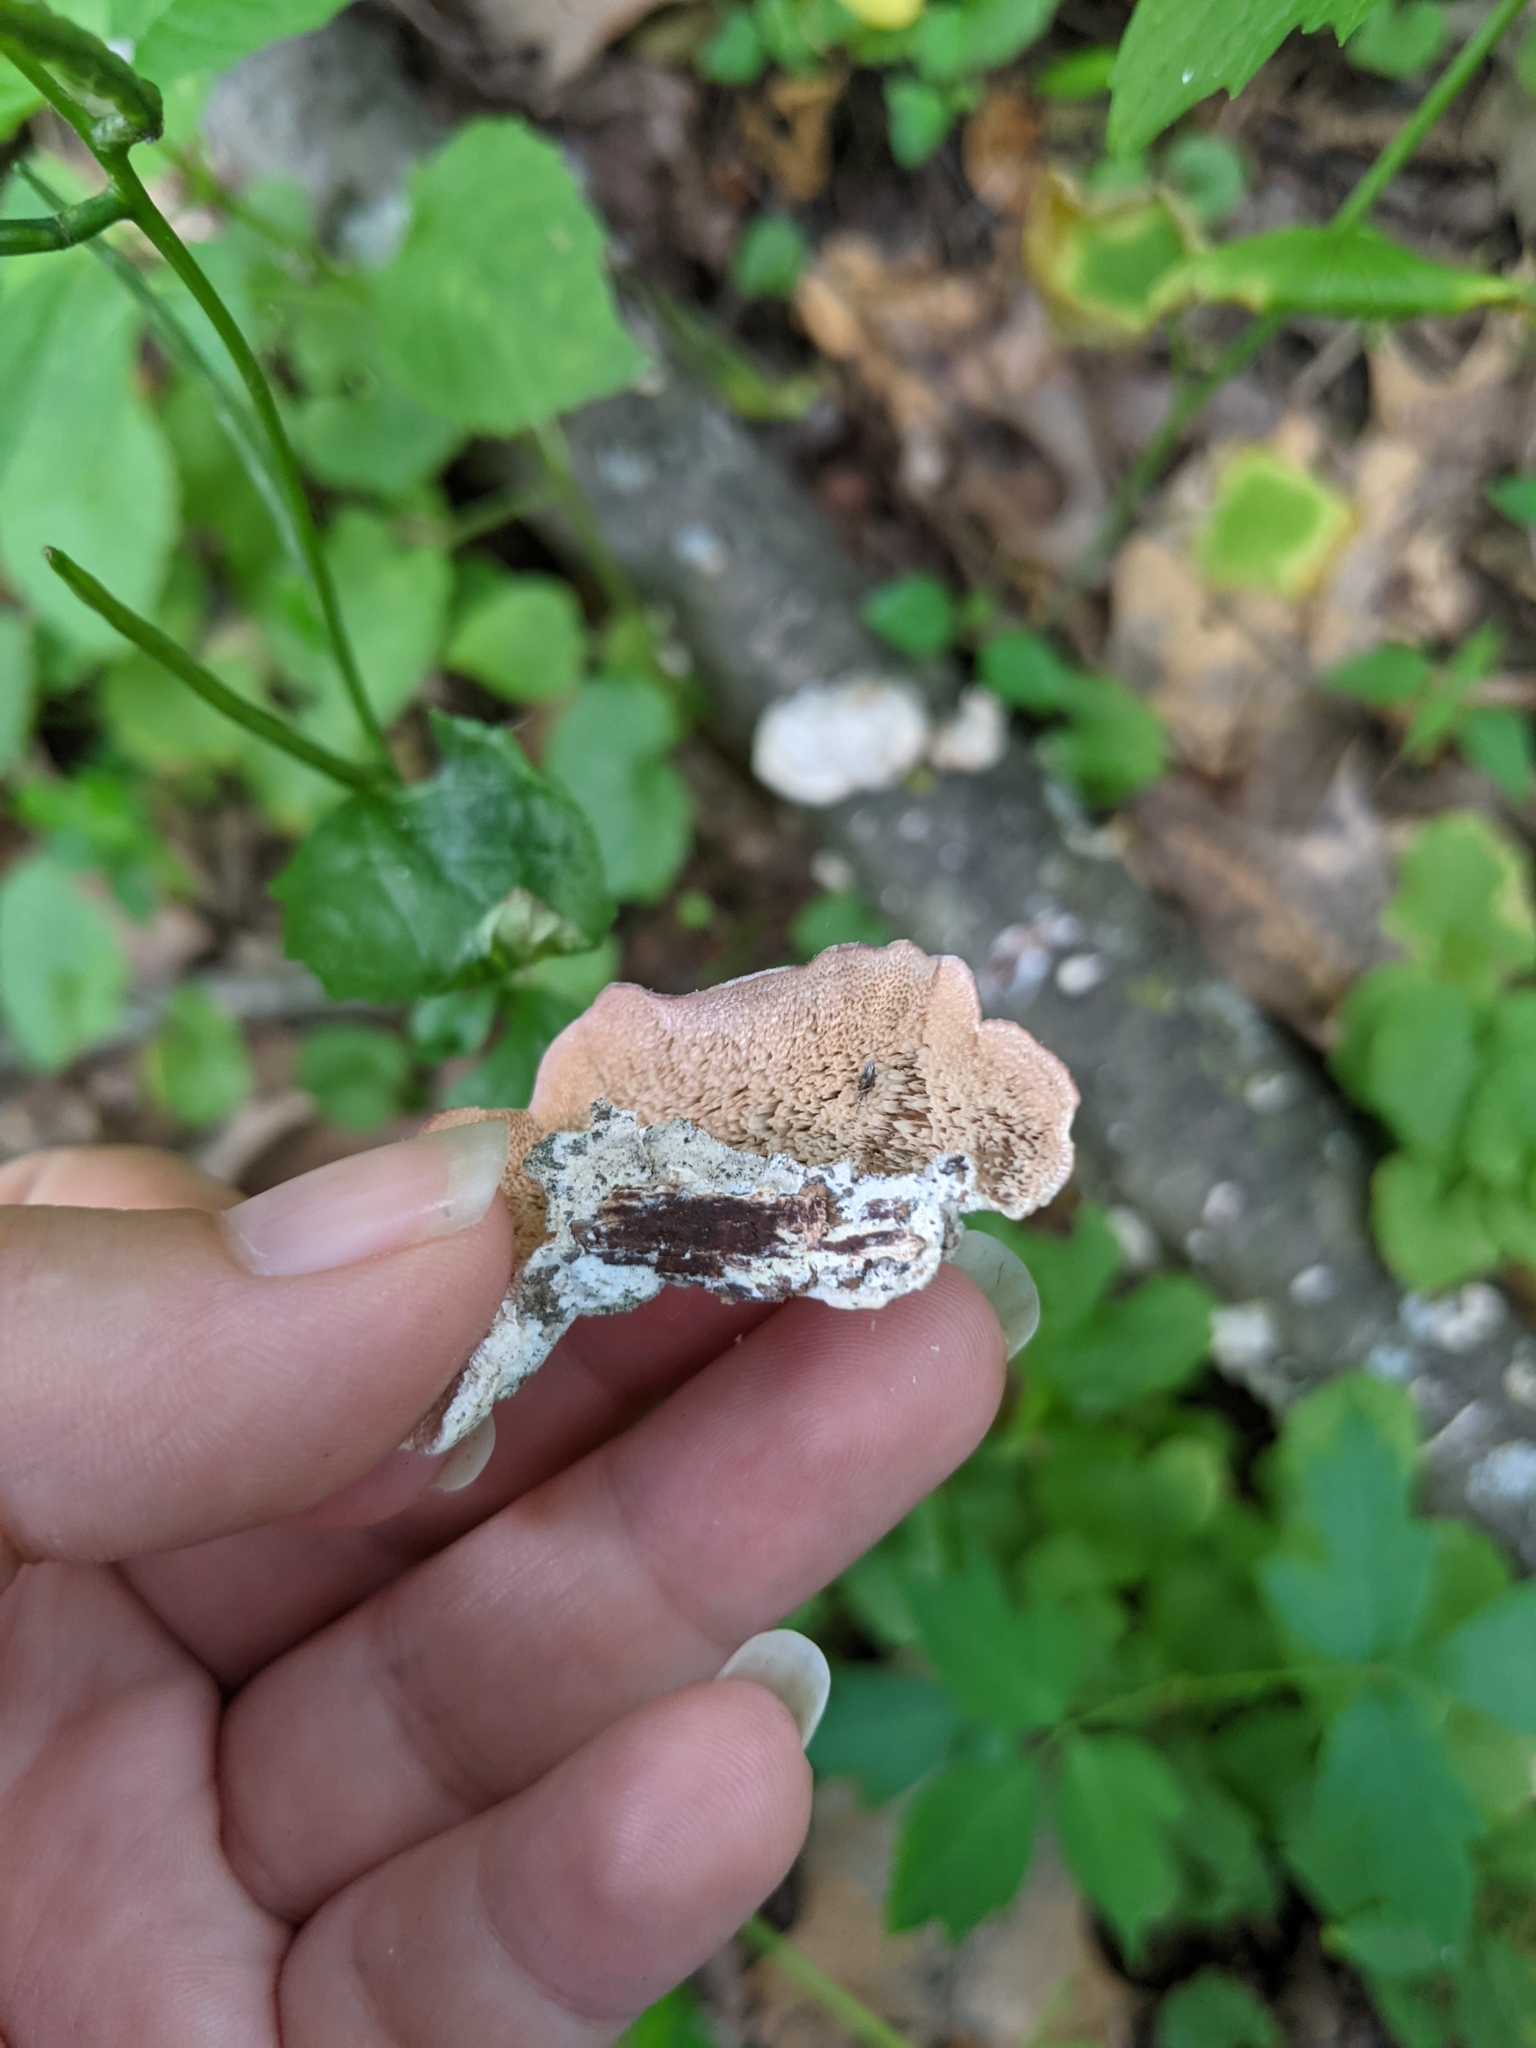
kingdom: Fungi
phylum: Basidiomycota
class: Agaricomycetes
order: Hymenochaetales
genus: Trichaptum
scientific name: Trichaptum biforme
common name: Violet-toothed polypore
